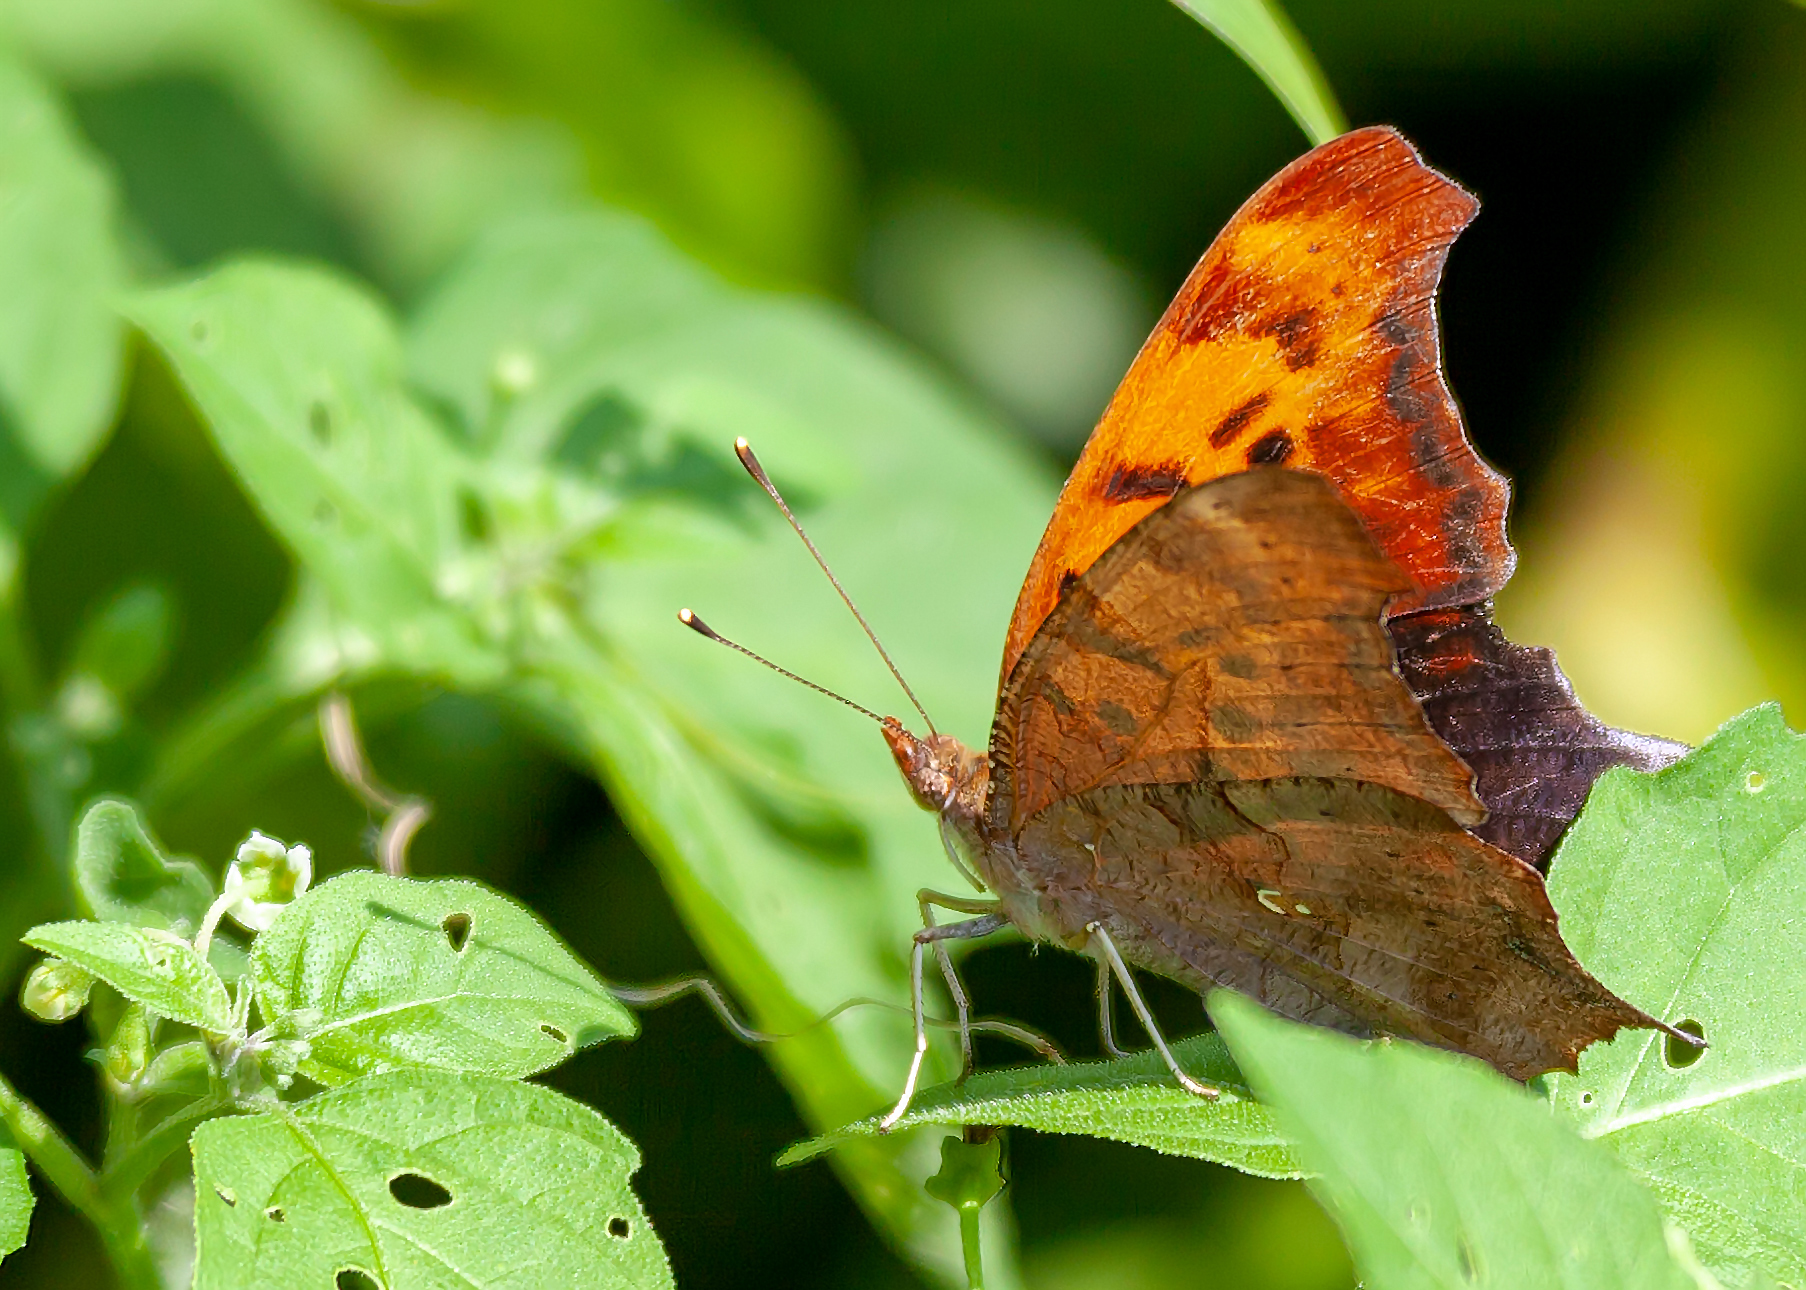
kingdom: Animalia
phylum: Arthropoda
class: Insecta
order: Lepidoptera
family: Nymphalidae
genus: Polygonia
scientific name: Polygonia interrogationis
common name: Question mark
